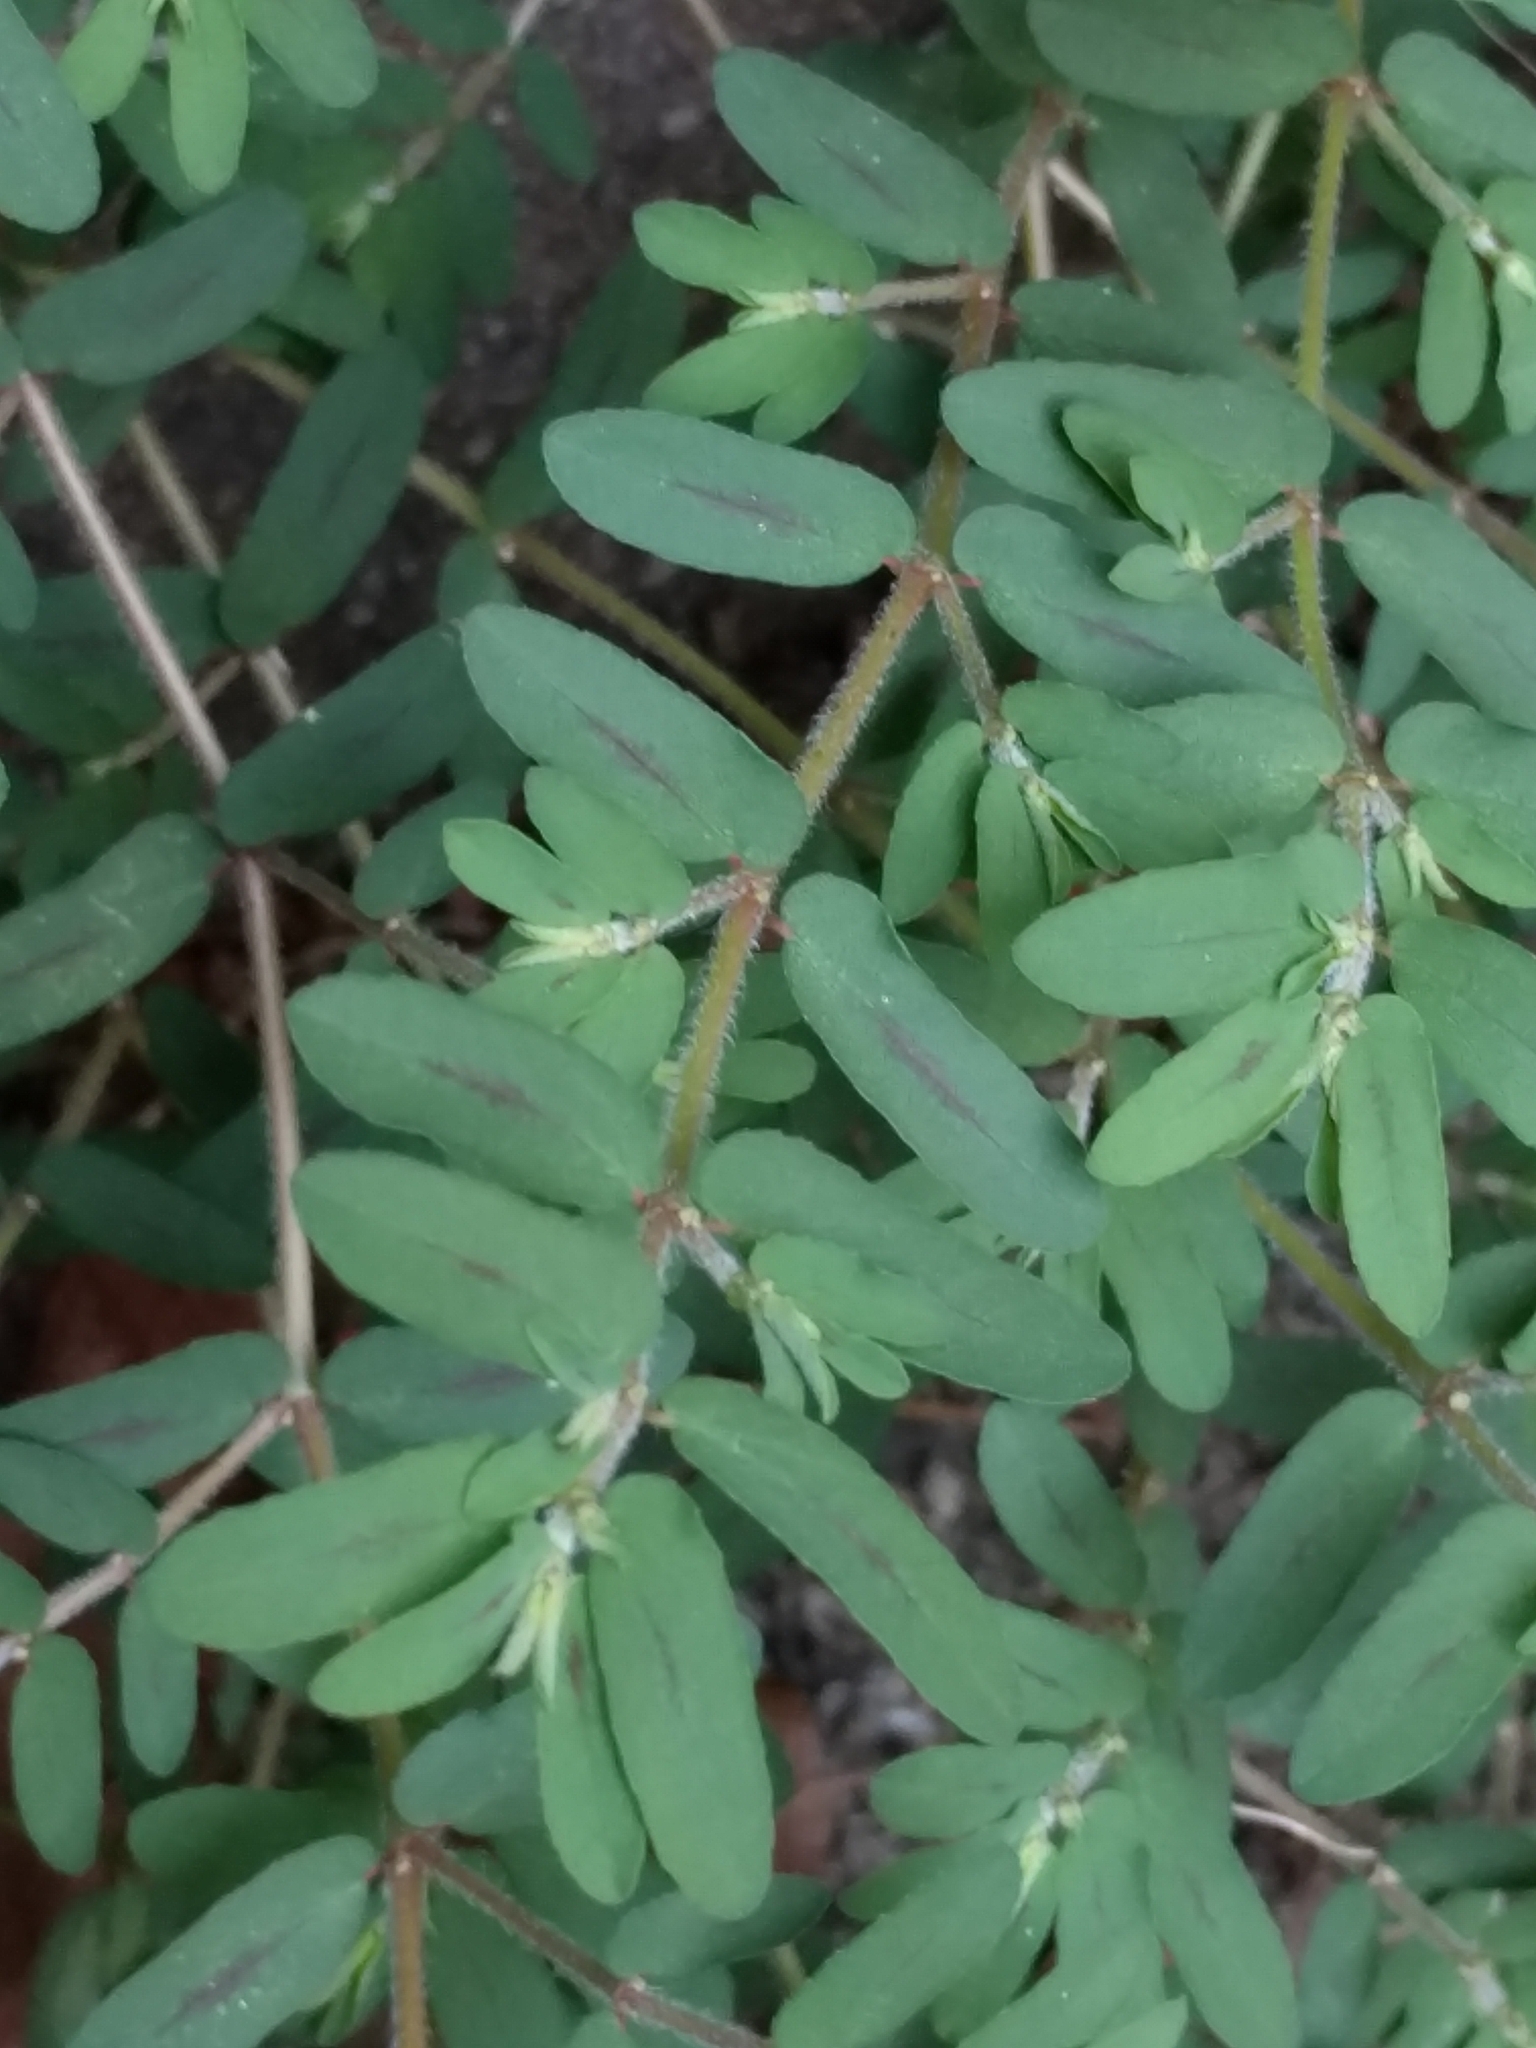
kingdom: Plantae
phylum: Tracheophyta
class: Magnoliopsida
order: Malpighiales
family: Euphorbiaceae
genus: Euphorbia
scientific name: Euphorbia maculata
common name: Spotted spurge
